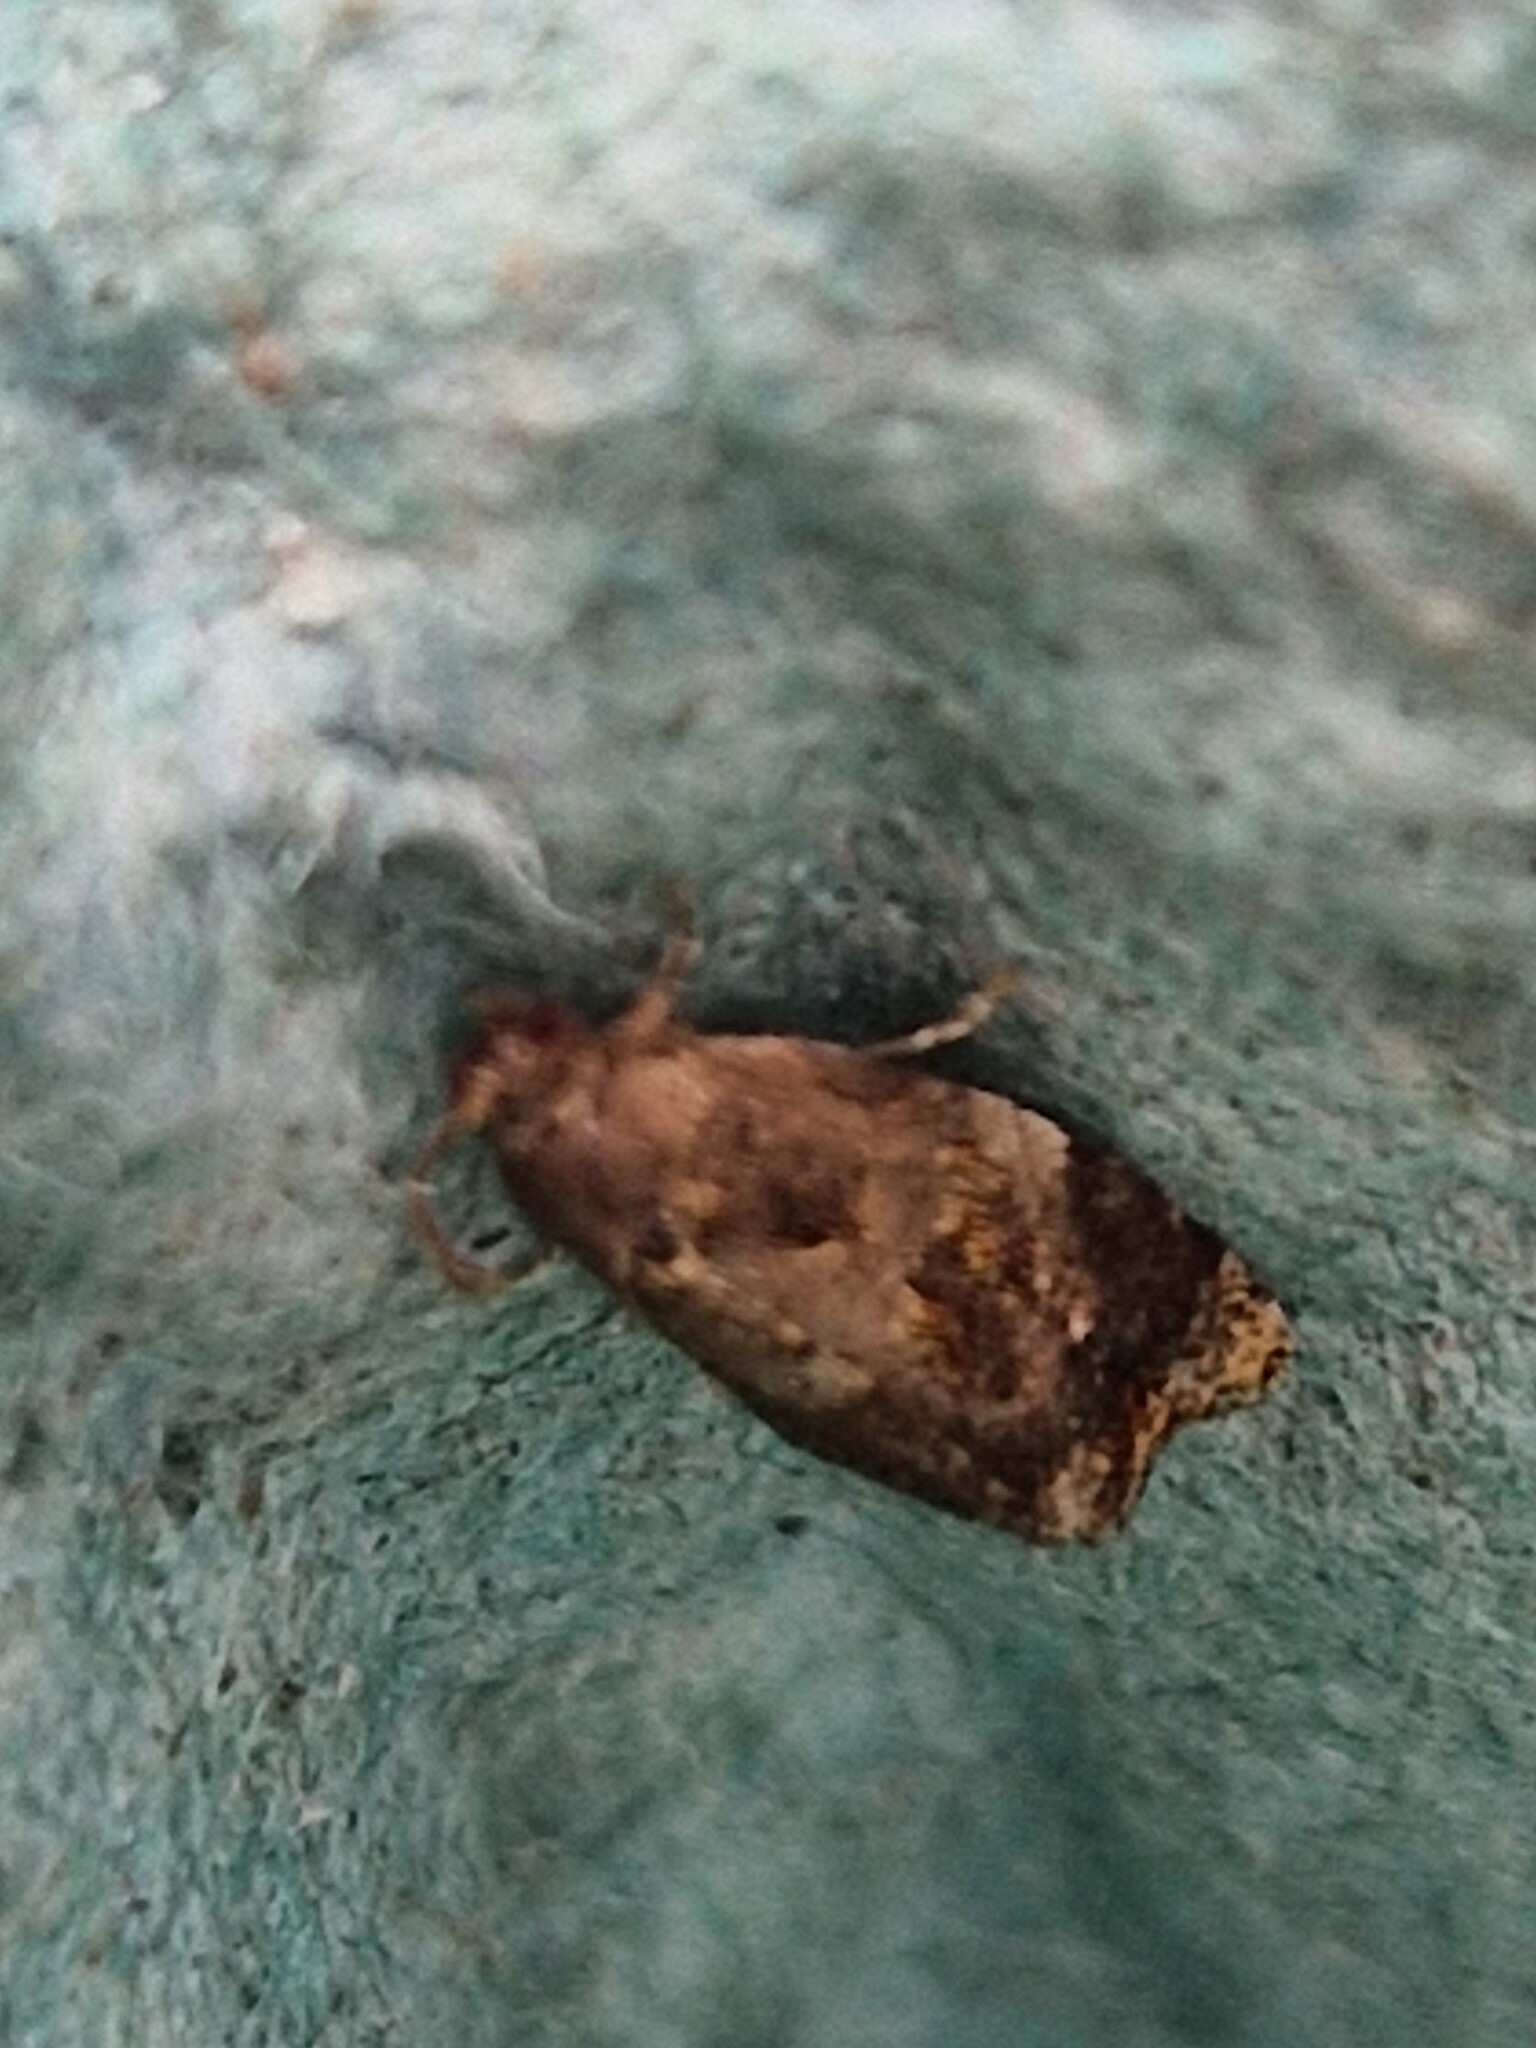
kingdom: Animalia
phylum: Arthropoda
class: Insecta
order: Lepidoptera
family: Tortricidae
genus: Ditula
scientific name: Ditula angustiorana
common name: Red-barred tortrix
